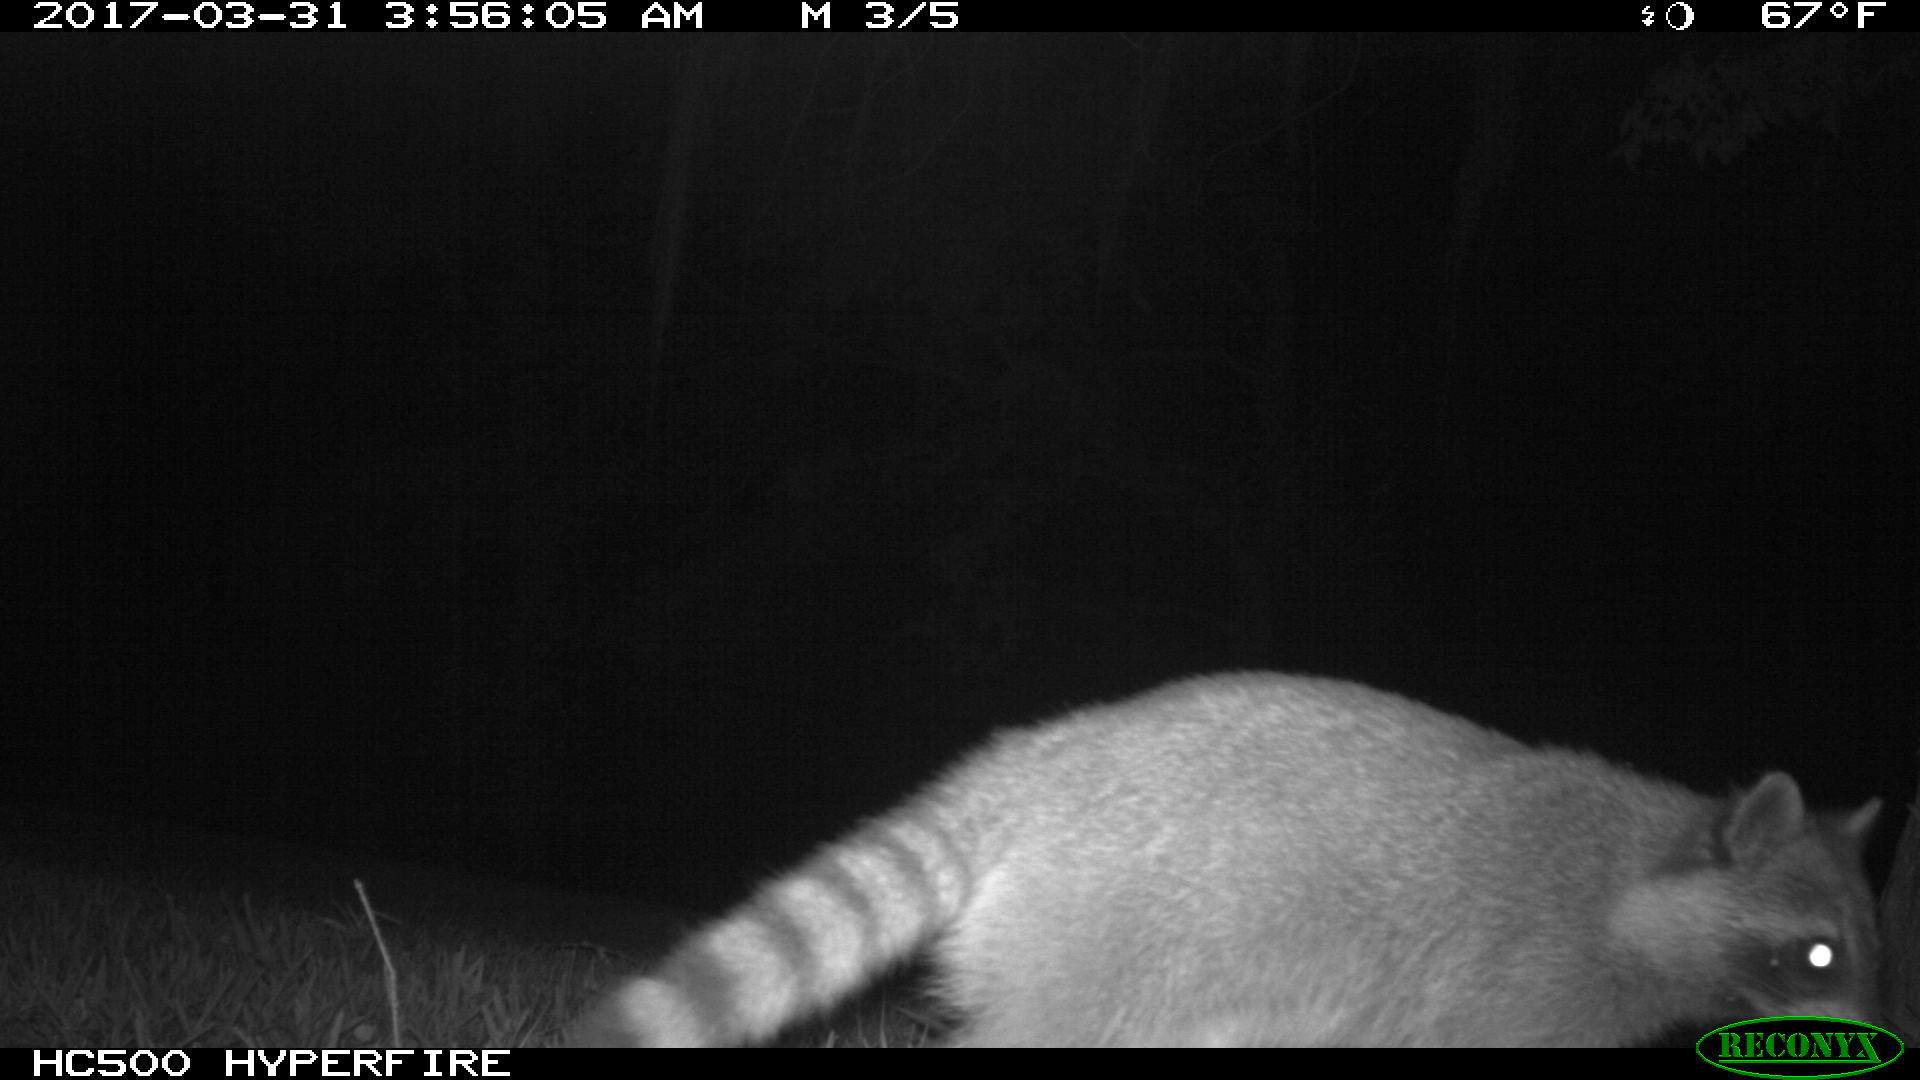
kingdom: Animalia
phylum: Chordata
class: Mammalia
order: Carnivora
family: Procyonidae
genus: Procyon
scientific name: Procyon lotor
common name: Raccoon
